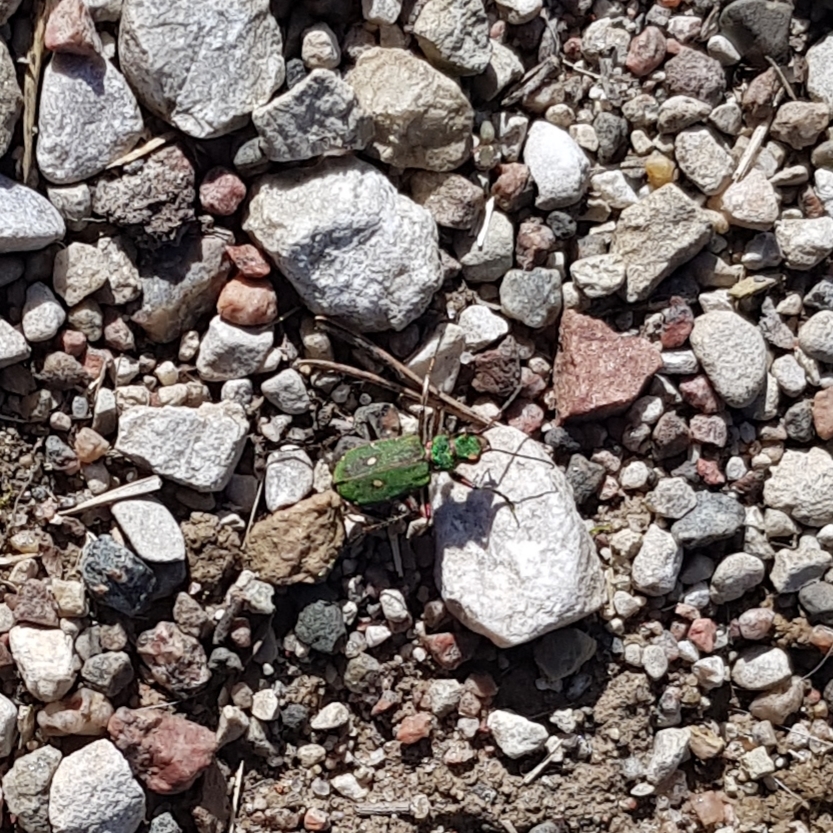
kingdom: Animalia
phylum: Arthropoda
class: Insecta
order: Coleoptera
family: Carabidae
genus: Cicindela
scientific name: Cicindela campestris
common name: Common tiger beetle
